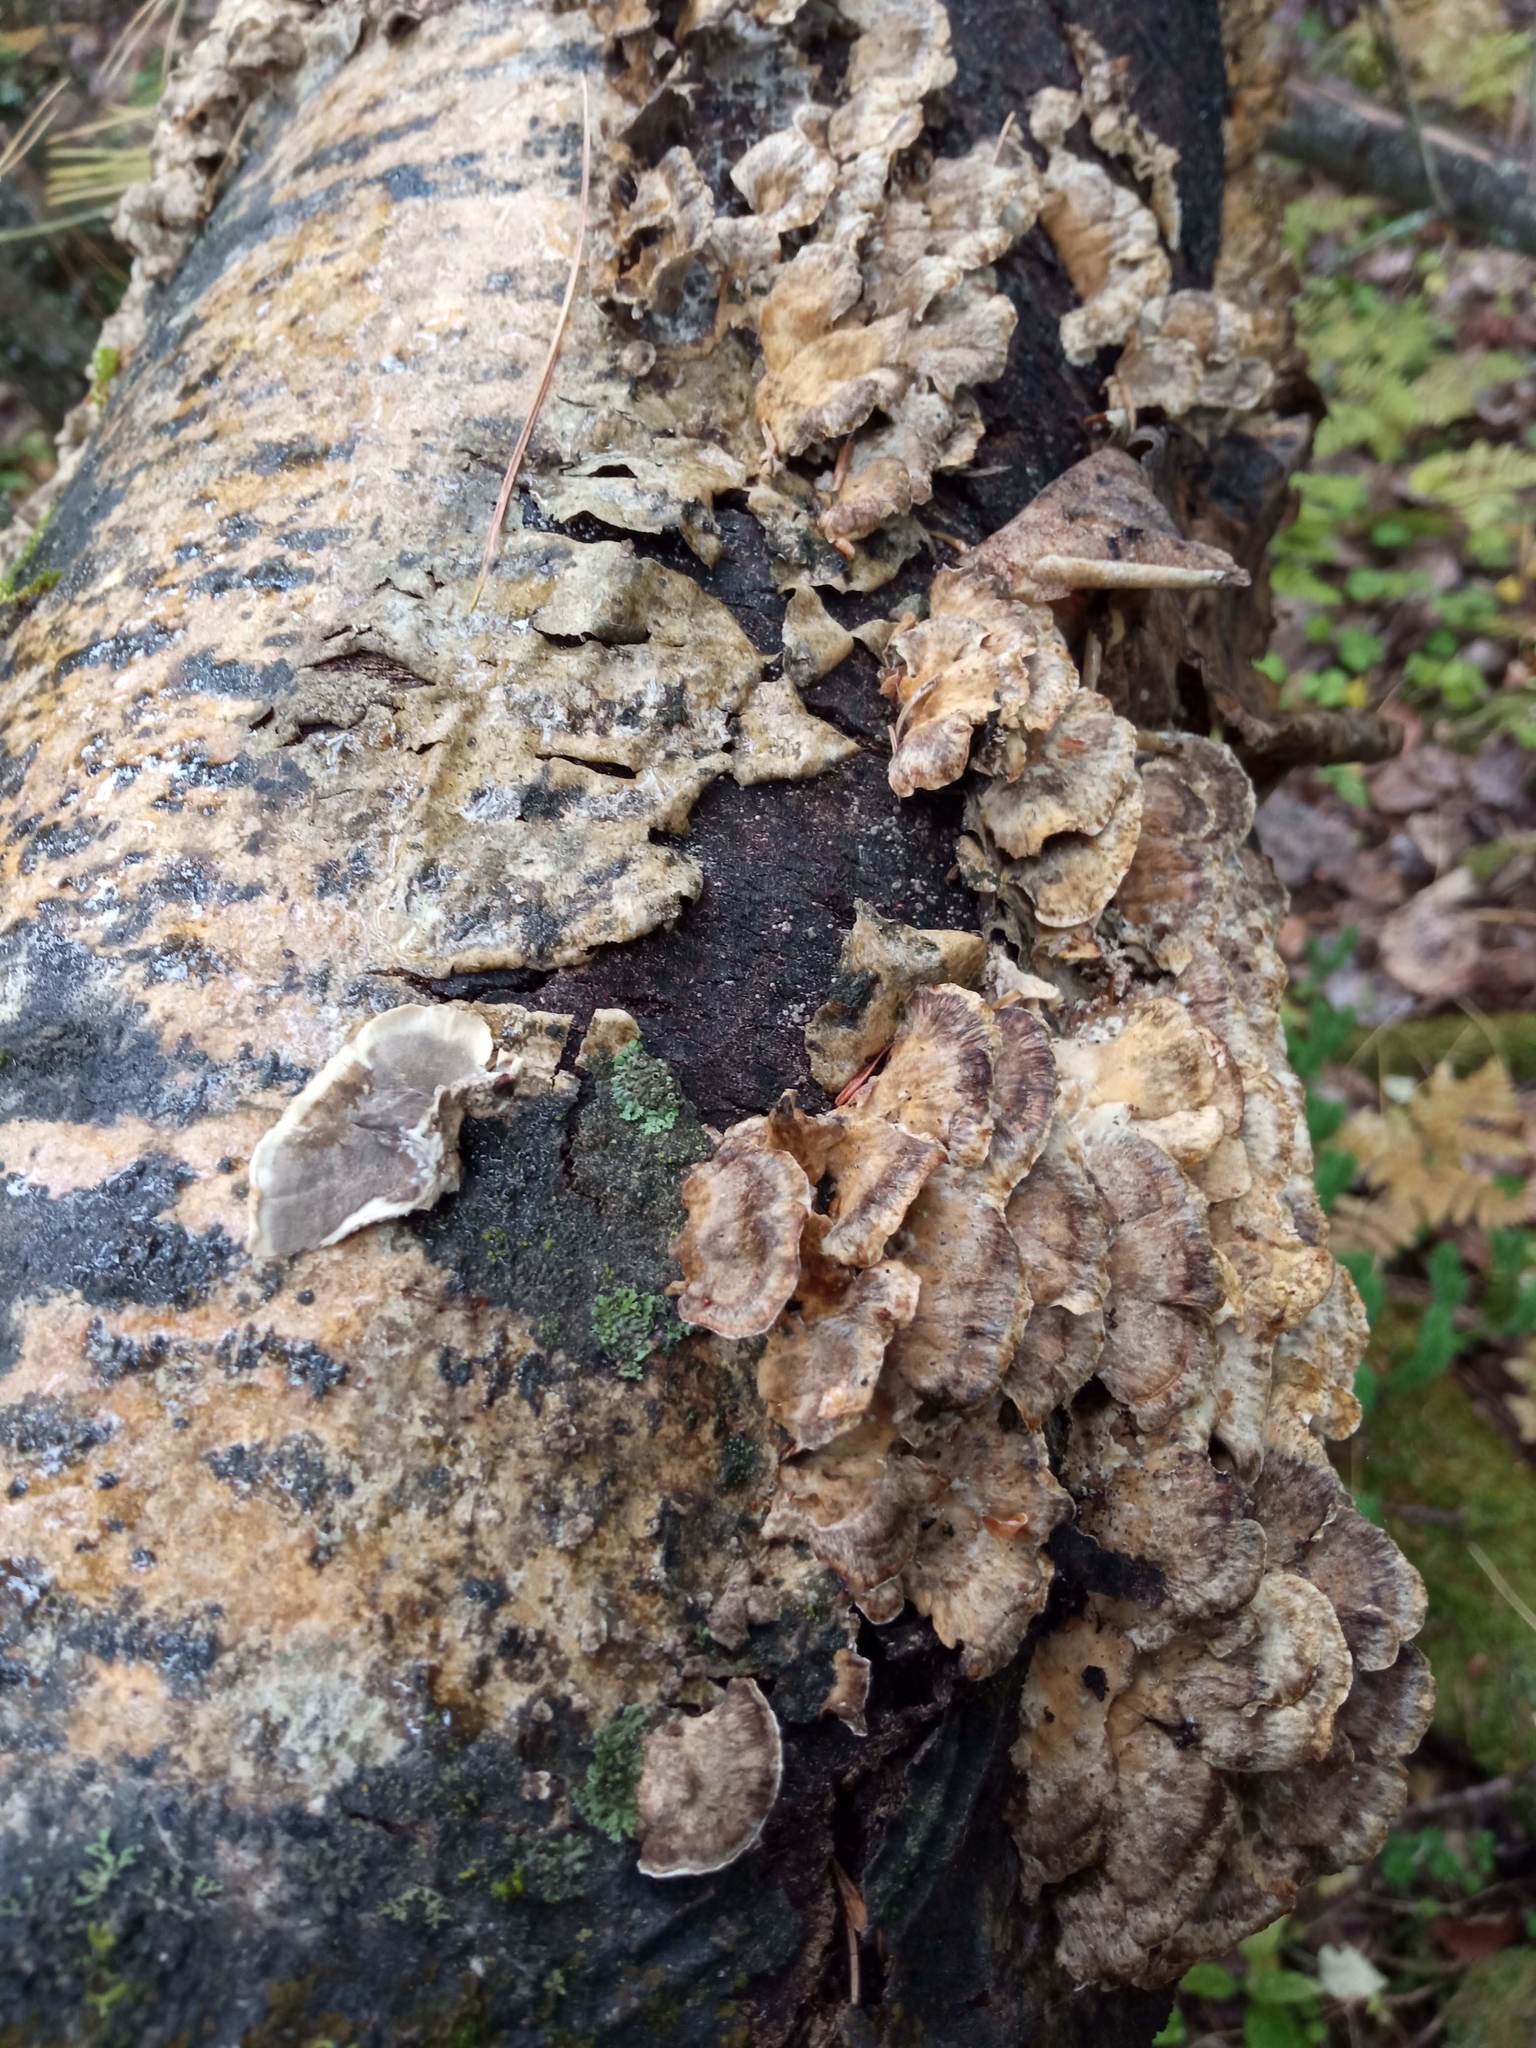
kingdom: Fungi
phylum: Basidiomycota
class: Agaricomycetes
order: Polyporales
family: Phanerochaetaceae
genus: Bjerkandera
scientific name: Bjerkandera adusta
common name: Smoky bracket
